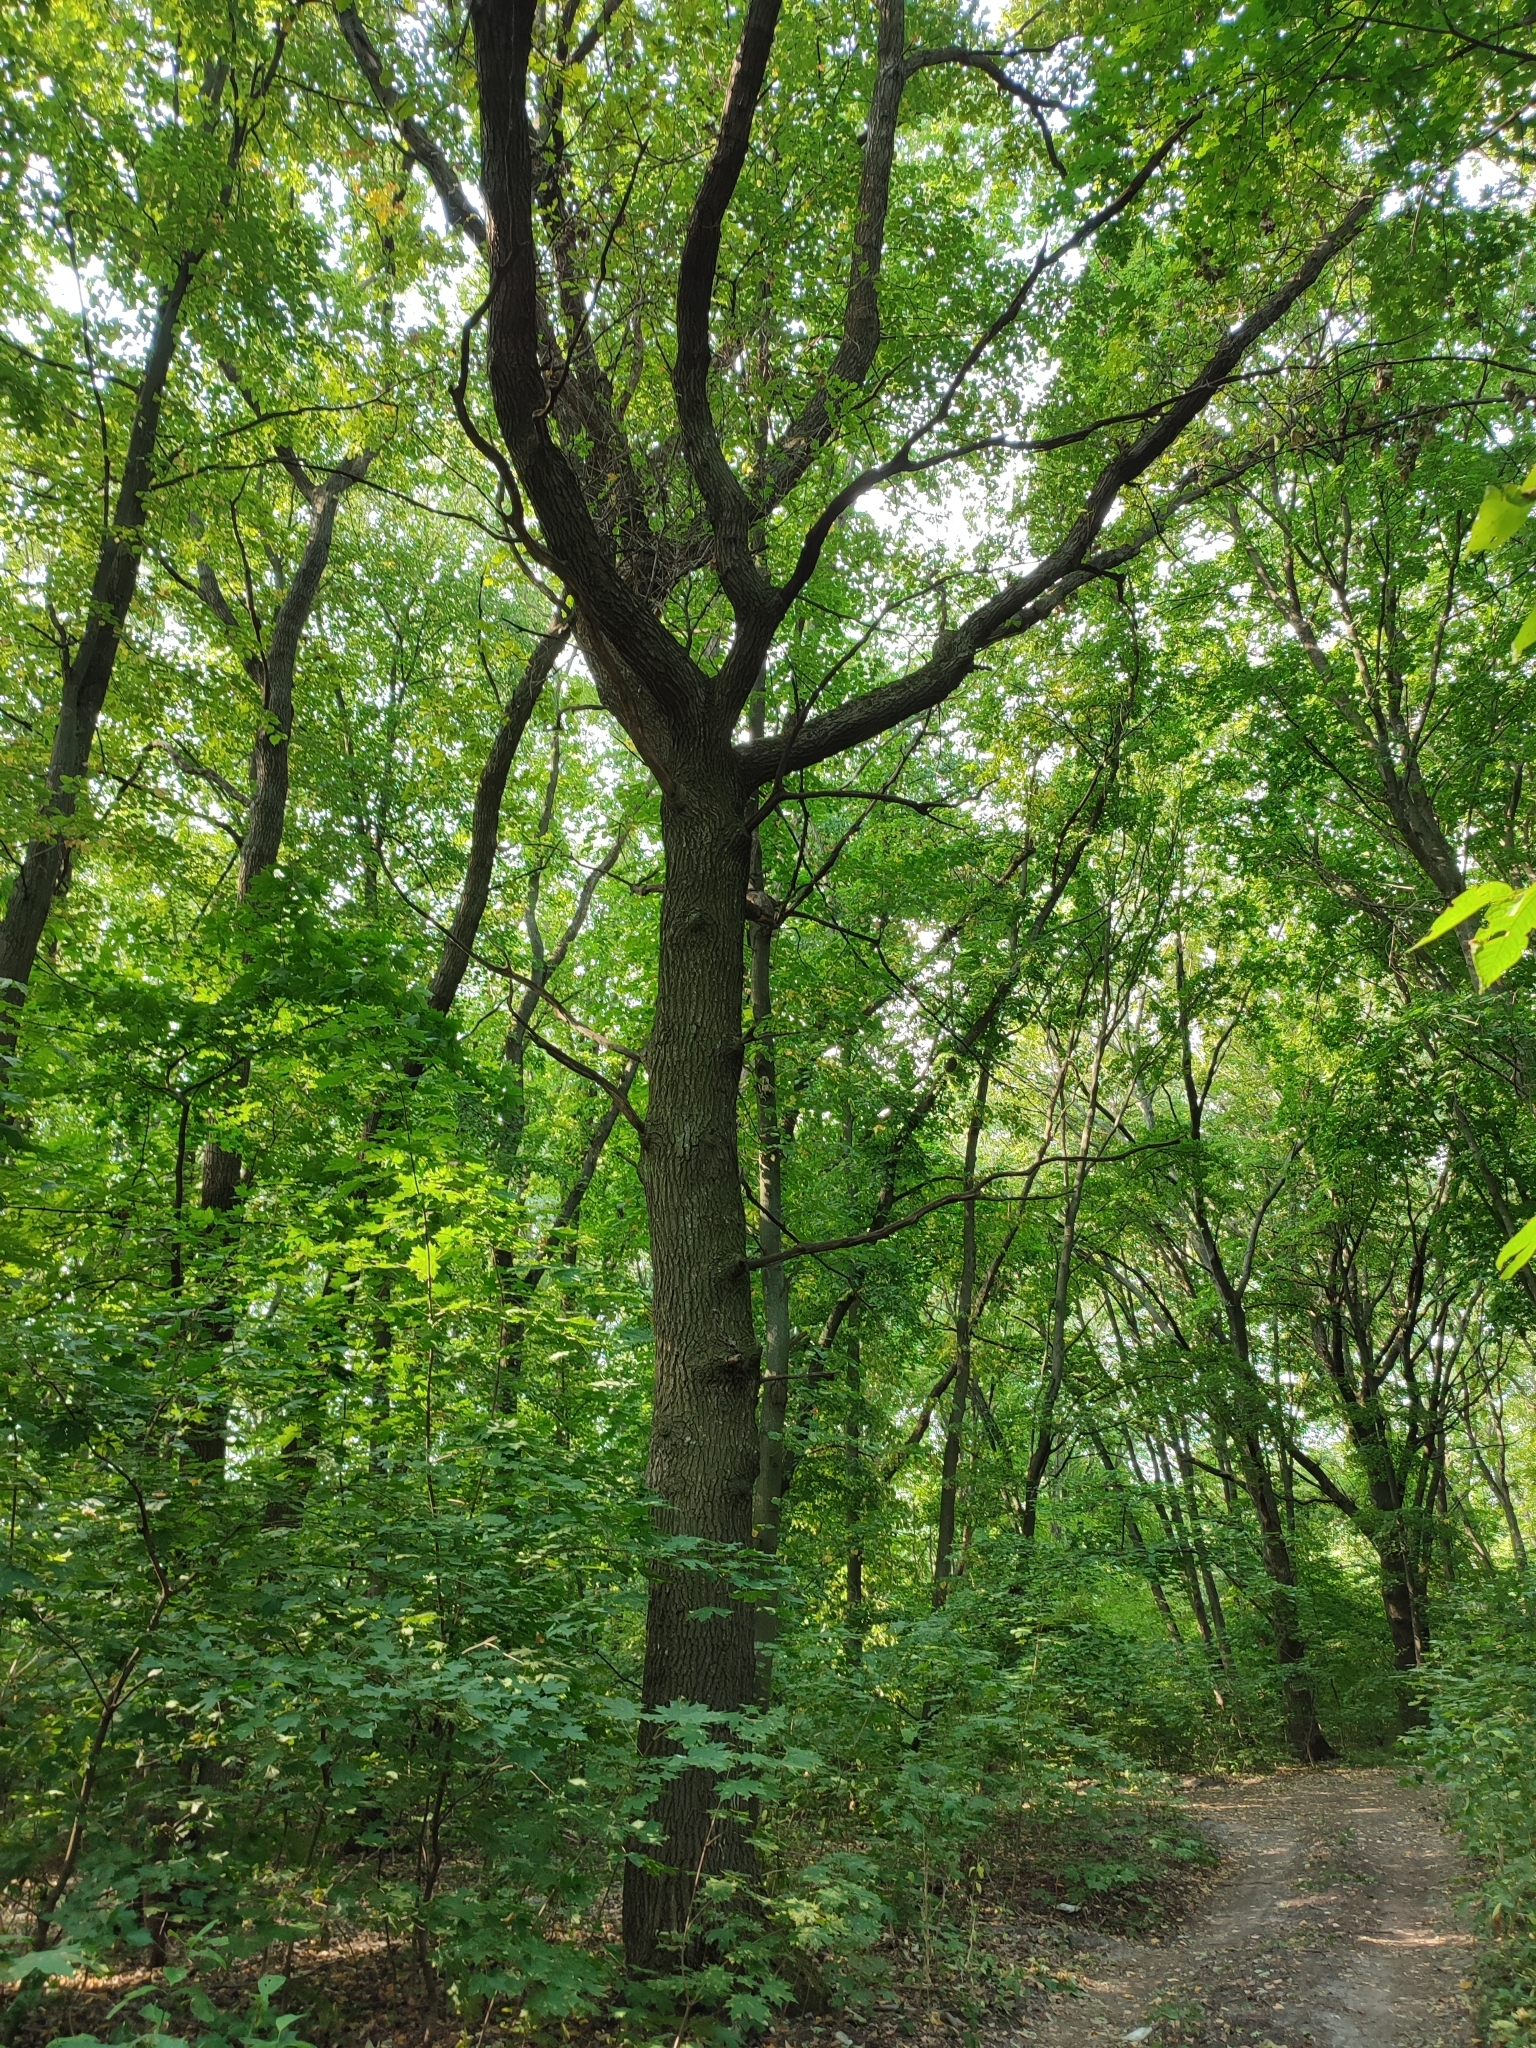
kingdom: Plantae
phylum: Tracheophyta
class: Magnoliopsida
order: Fagales
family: Fagaceae
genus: Quercus
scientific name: Quercus robur
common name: Pedunculate oak
